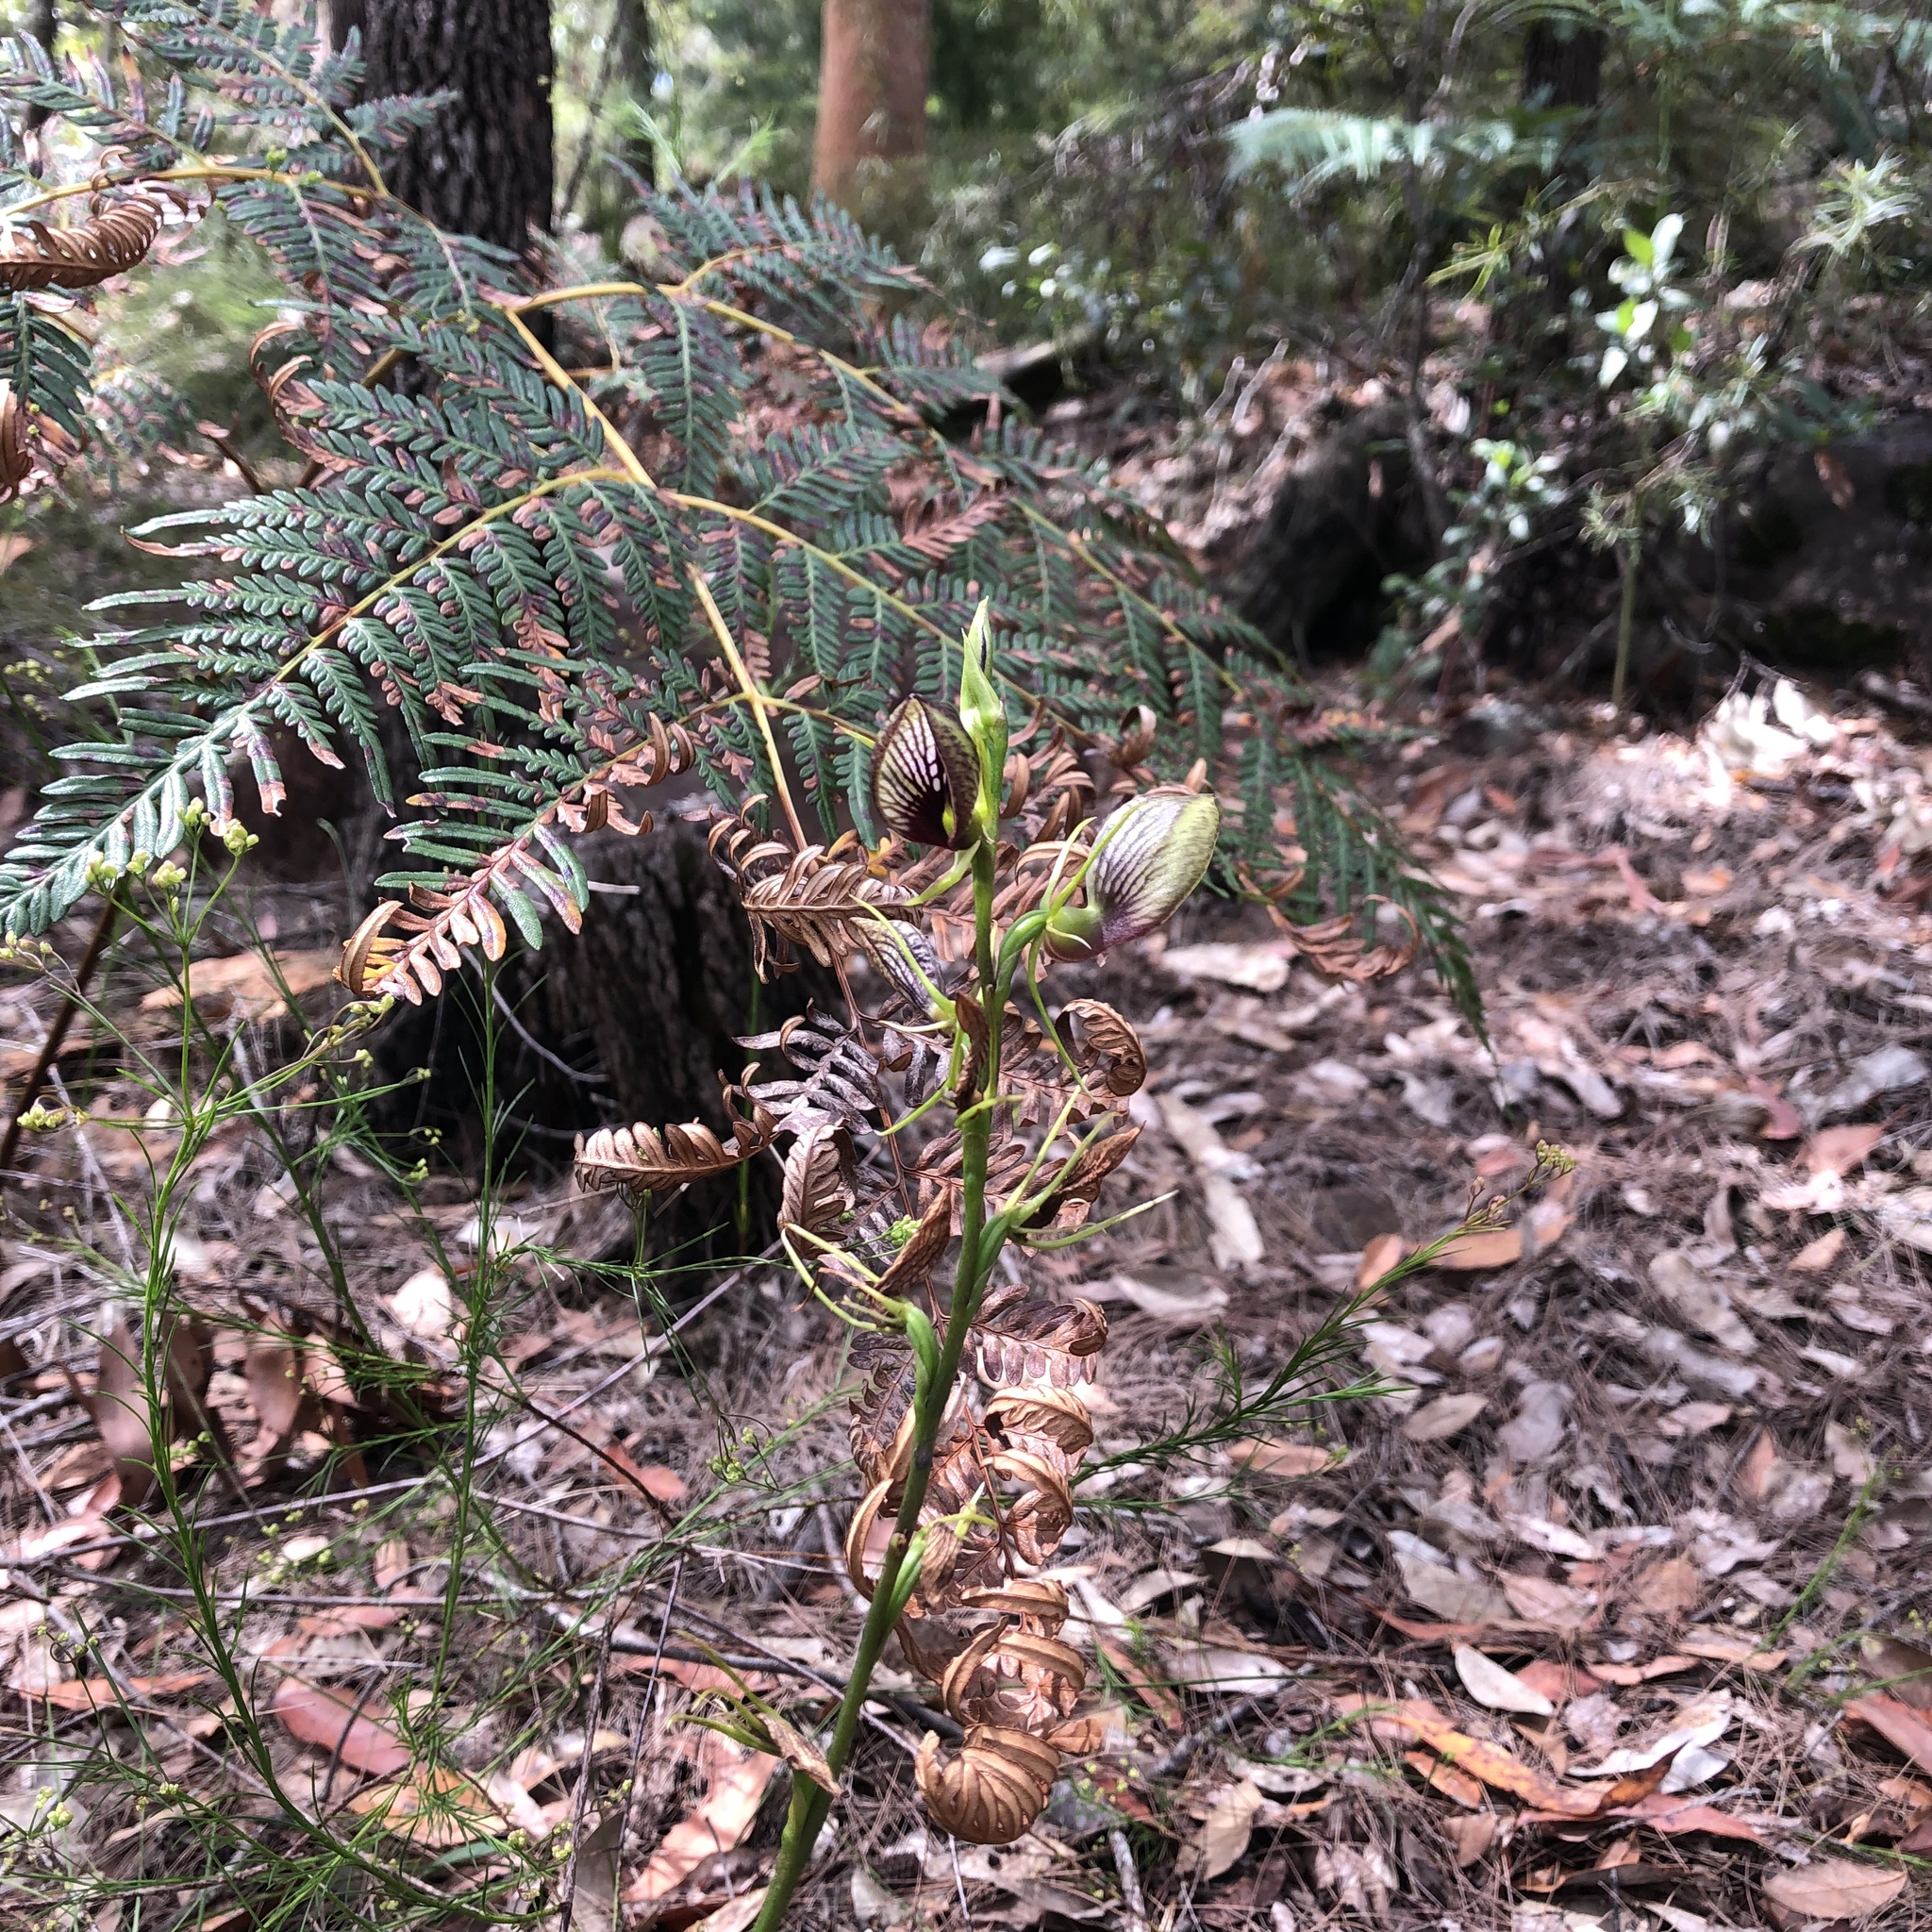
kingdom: Plantae
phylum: Tracheophyta
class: Liliopsida
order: Asparagales
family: Orchidaceae
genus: Cryptostylis
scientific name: Cryptostylis erecta
